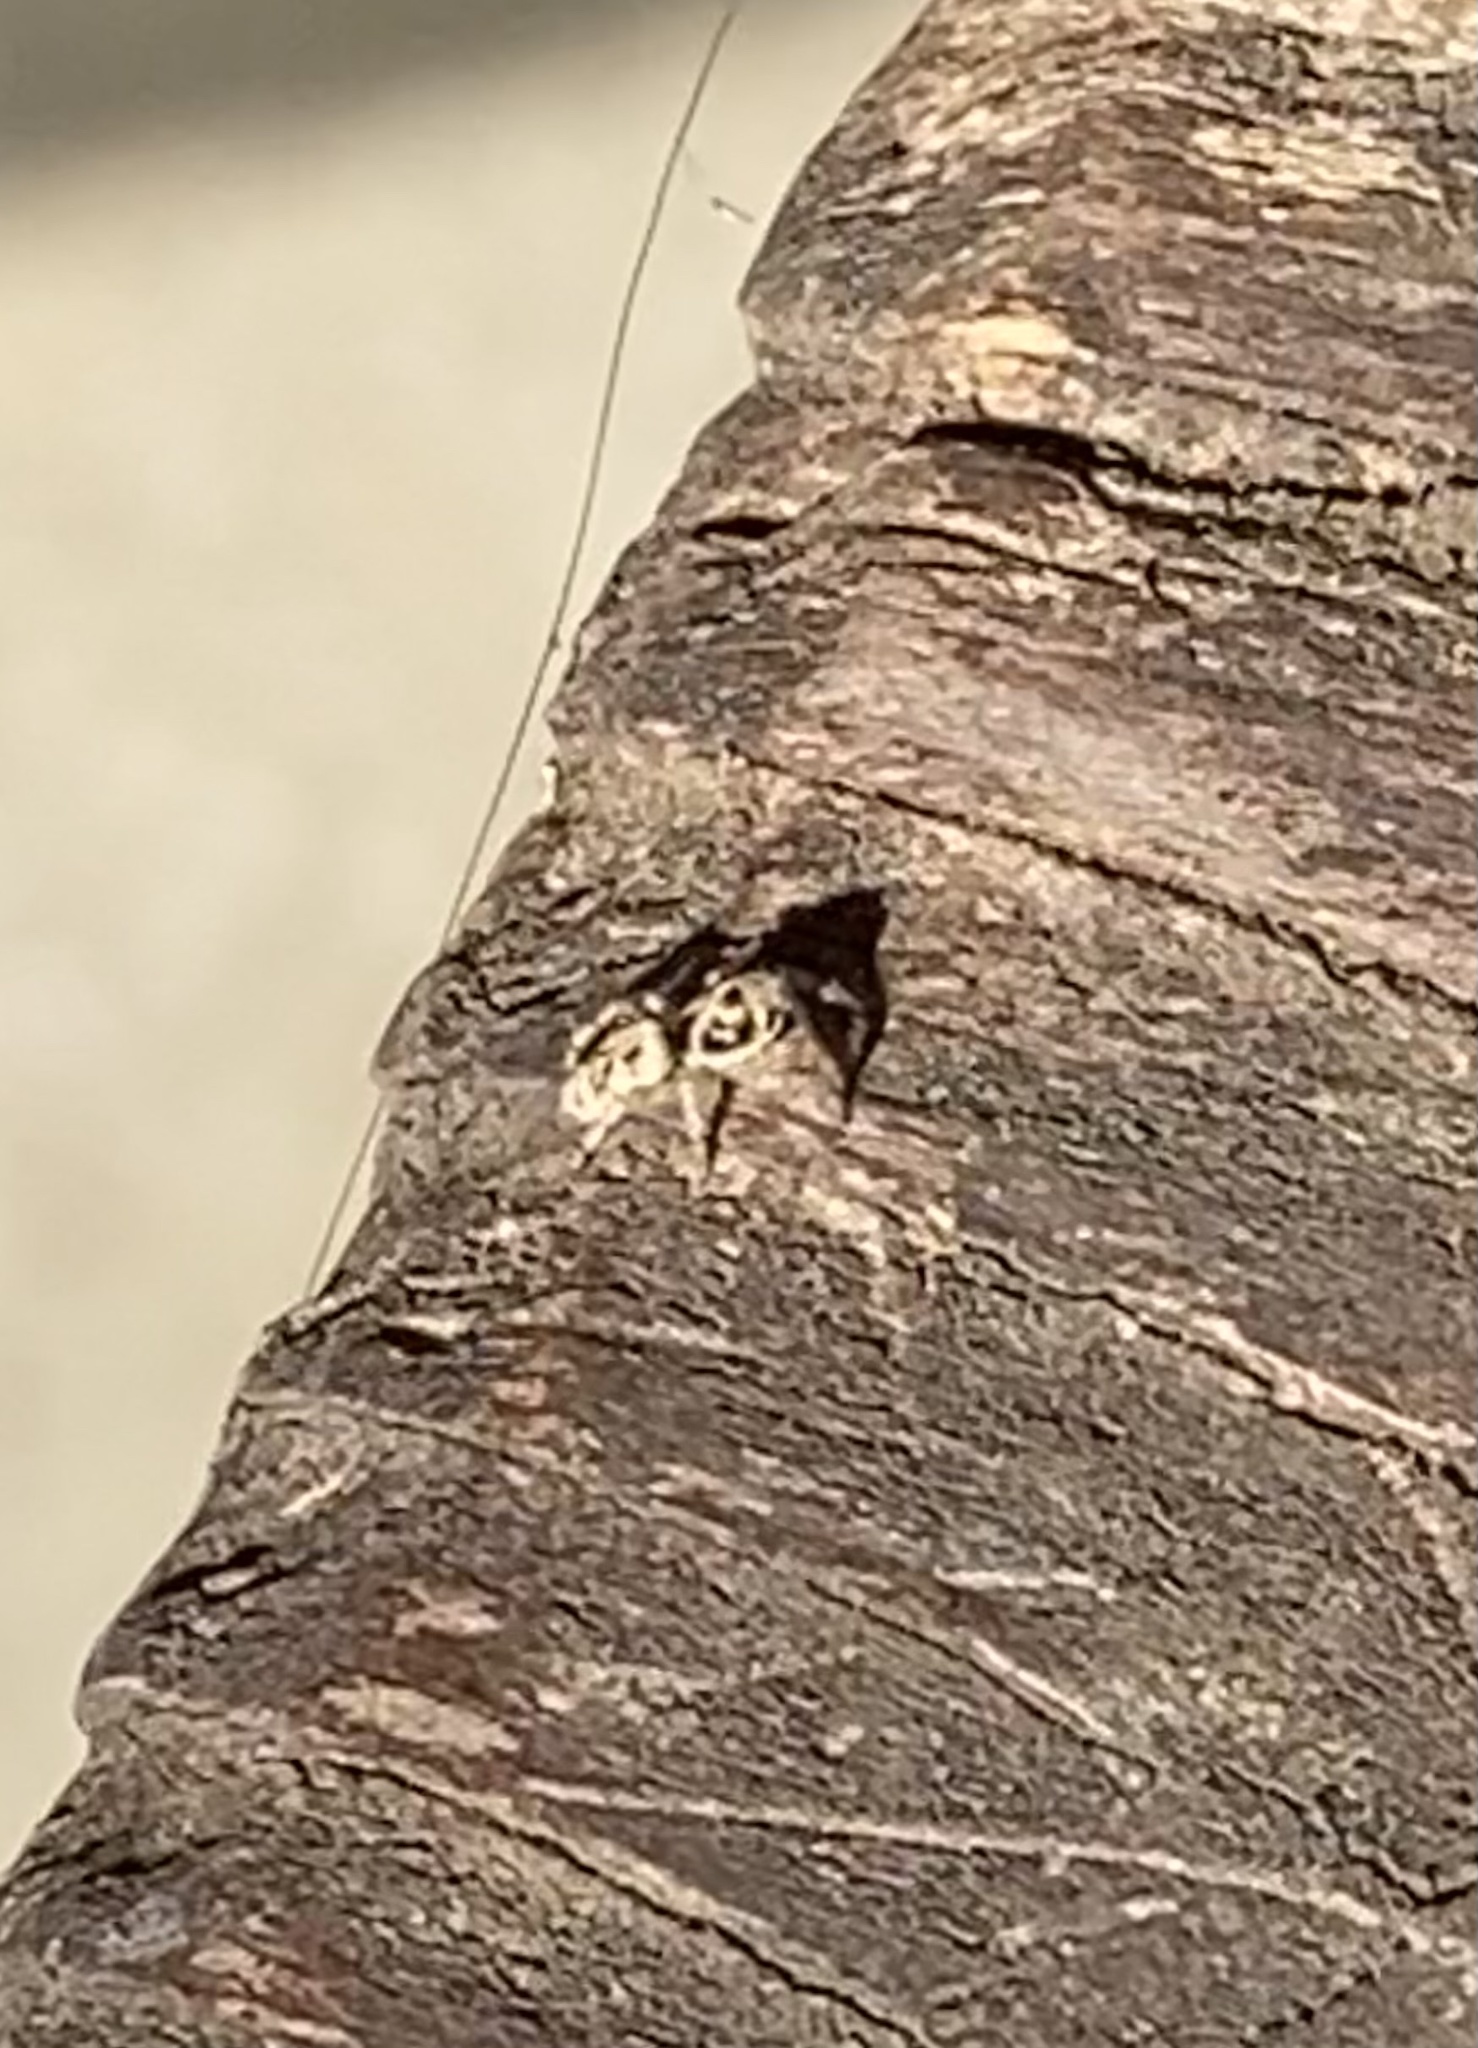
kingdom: Animalia
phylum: Arthropoda
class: Arachnida
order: Araneae
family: Salticidae
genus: Salticus
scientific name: Salticus scenicus
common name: Zebra jumper
